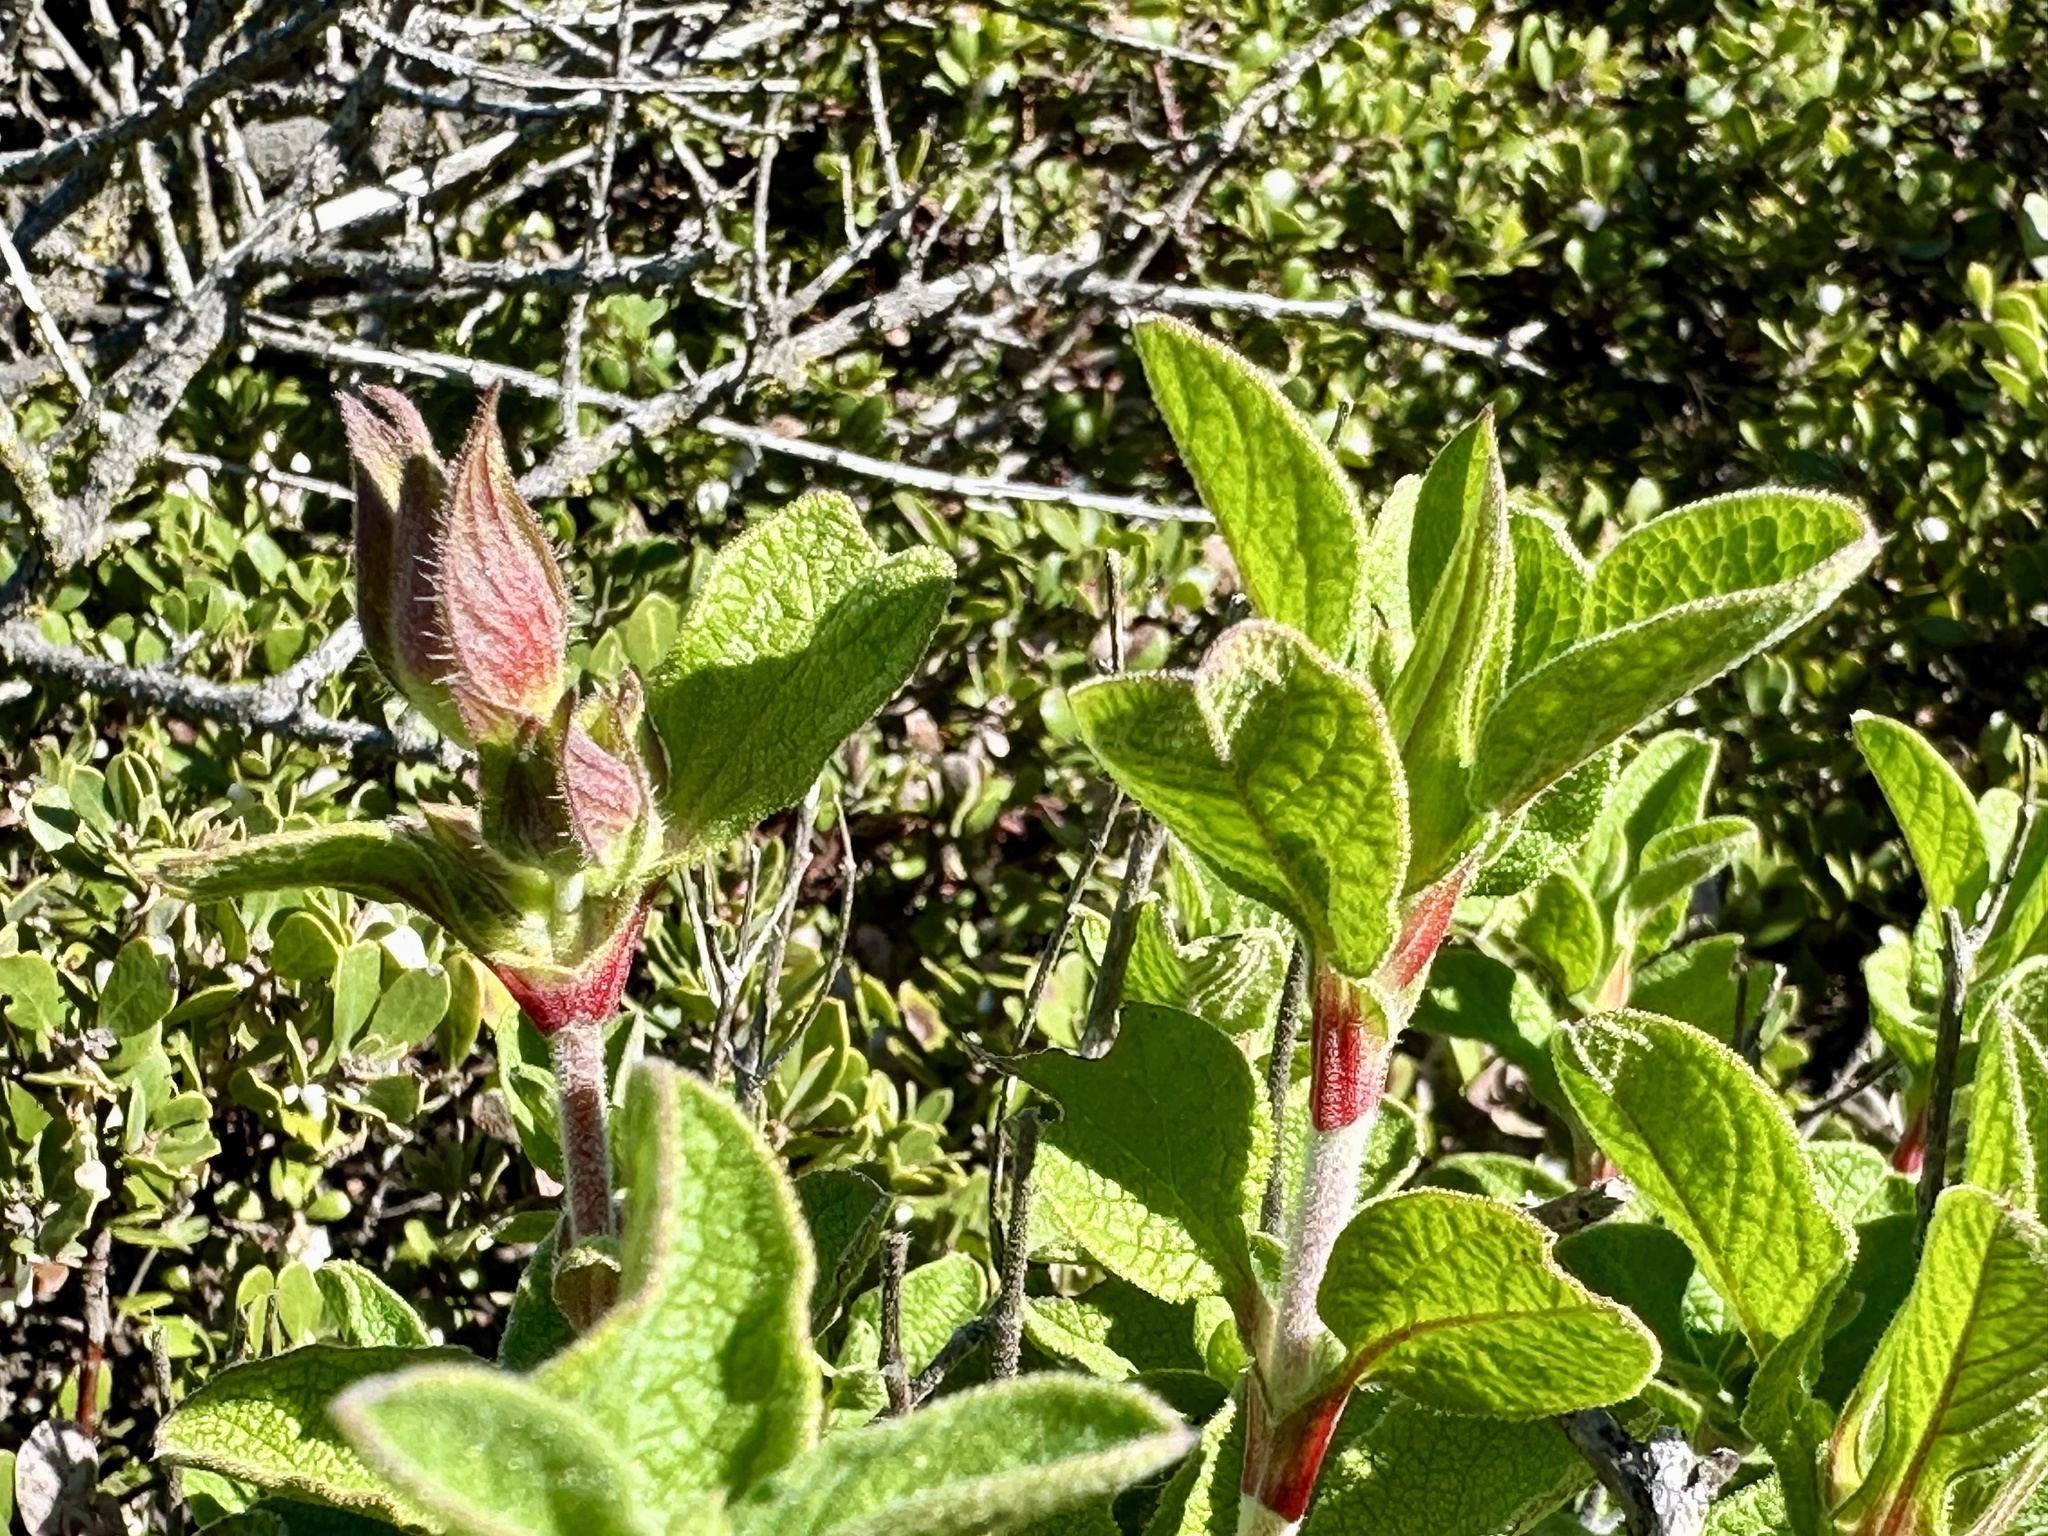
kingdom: Plantae
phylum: Tracheophyta
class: Magnoliopsida
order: Malvales
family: Cistaceae
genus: Cistus
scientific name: Cistus creticus
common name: Cretan rockrose
